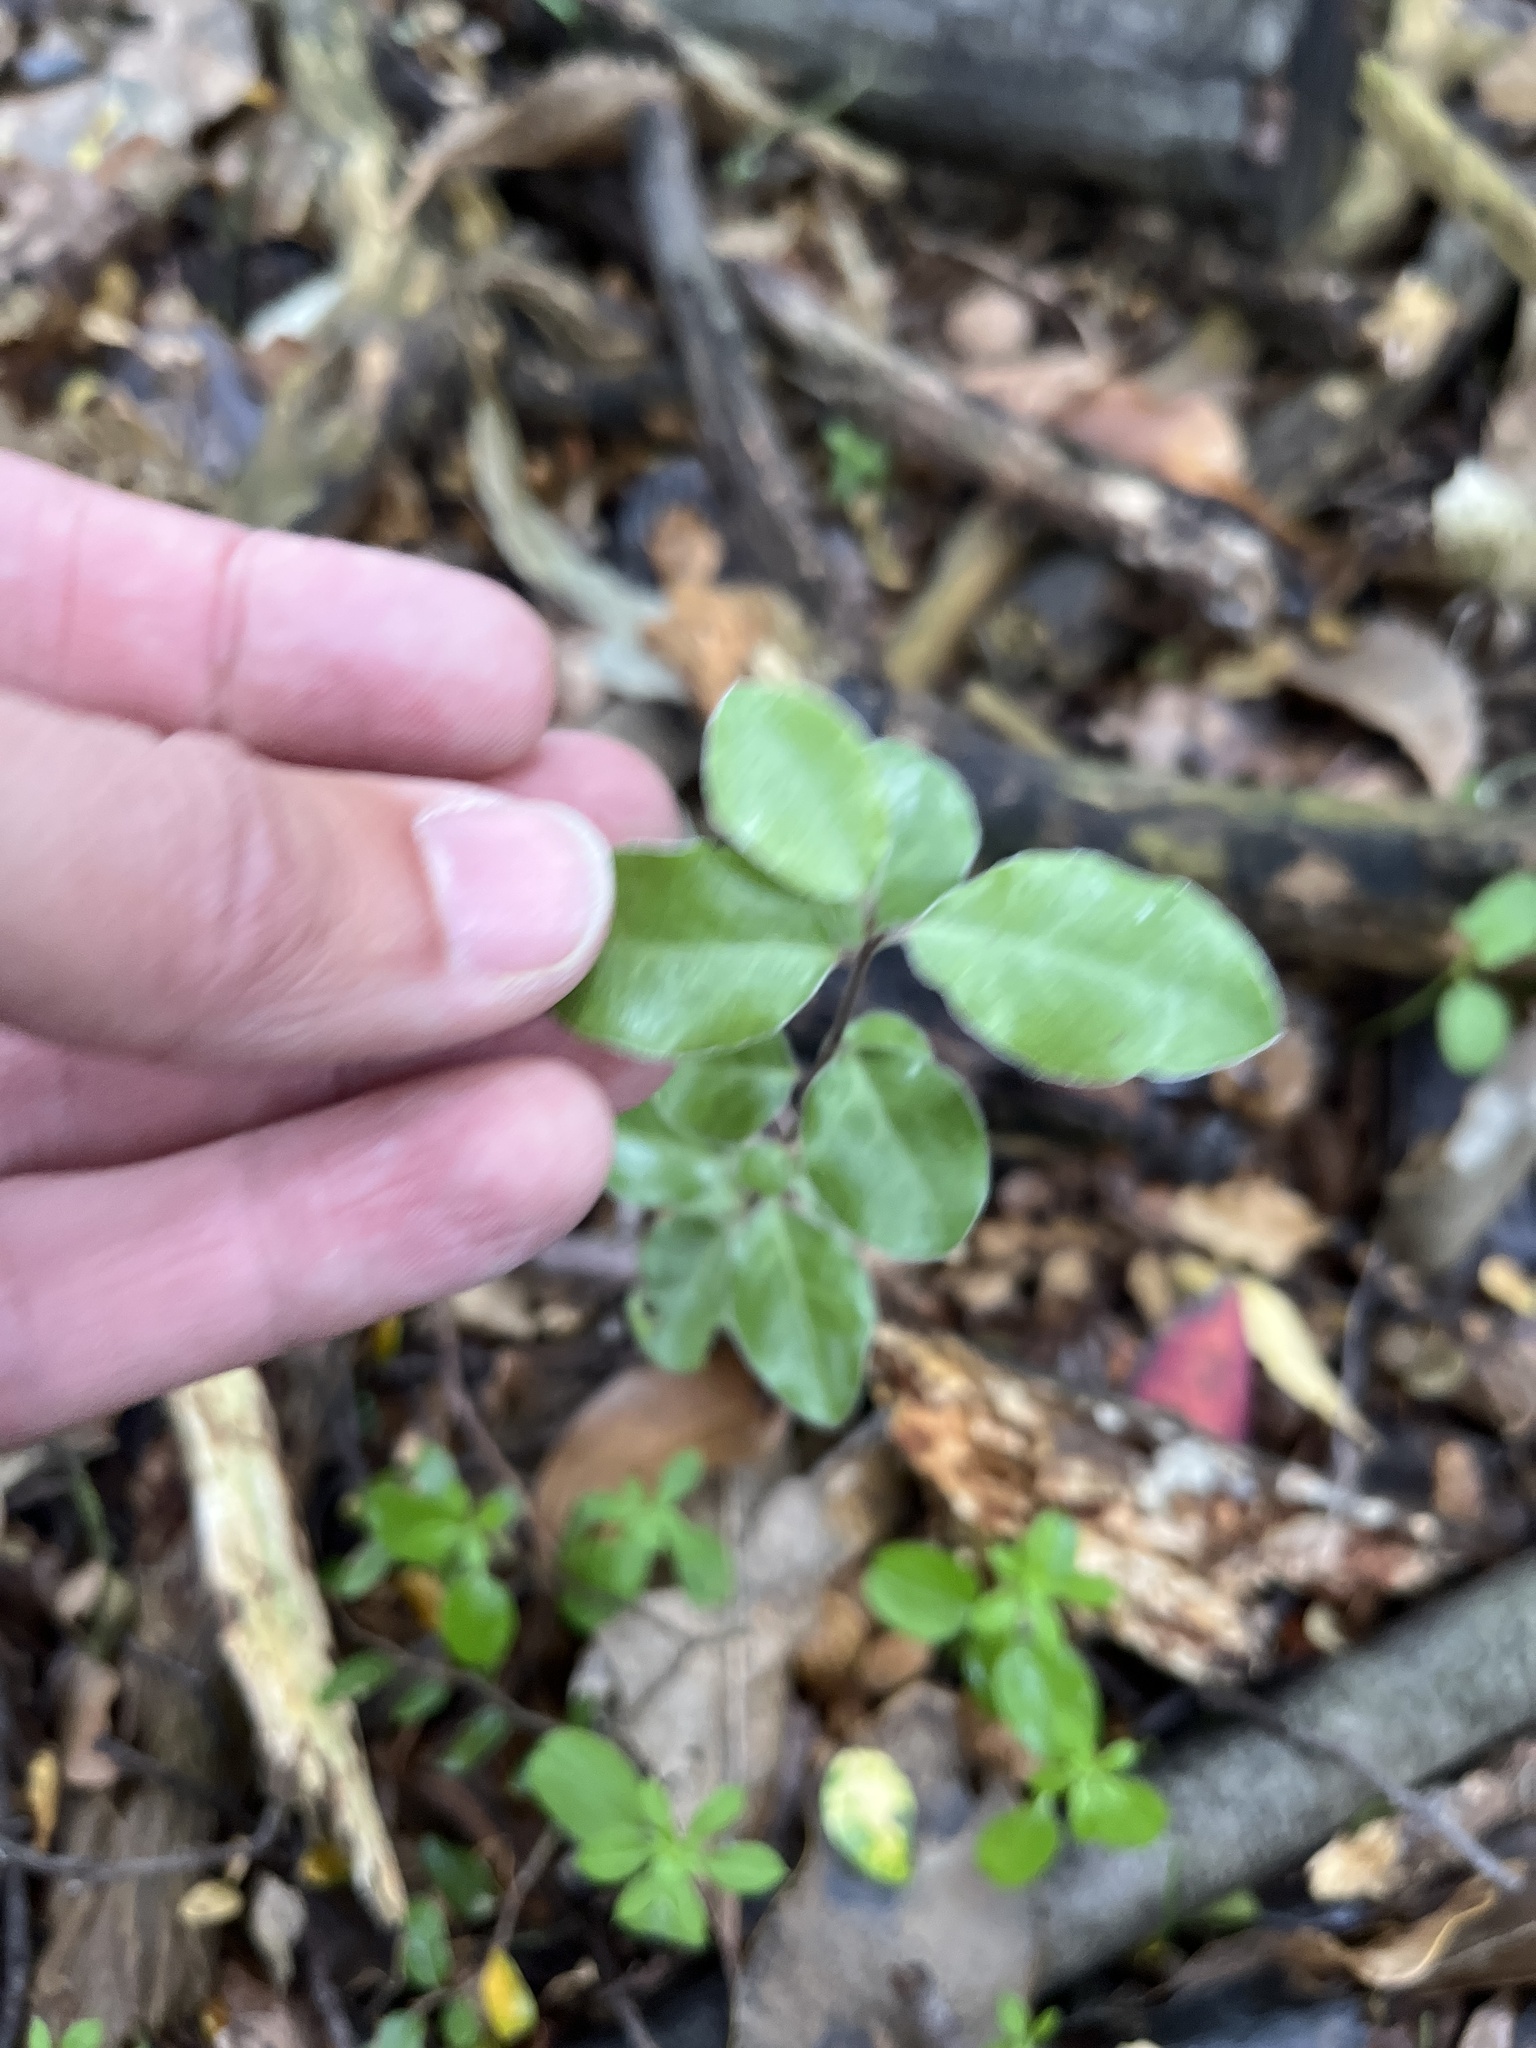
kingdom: Plantae
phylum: Tracheophyta
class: Magnoliopsida
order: Apiales
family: Pittosporaceae
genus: Pittosporum
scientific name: Pittosporum tenuifolium
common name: Kohuhu
